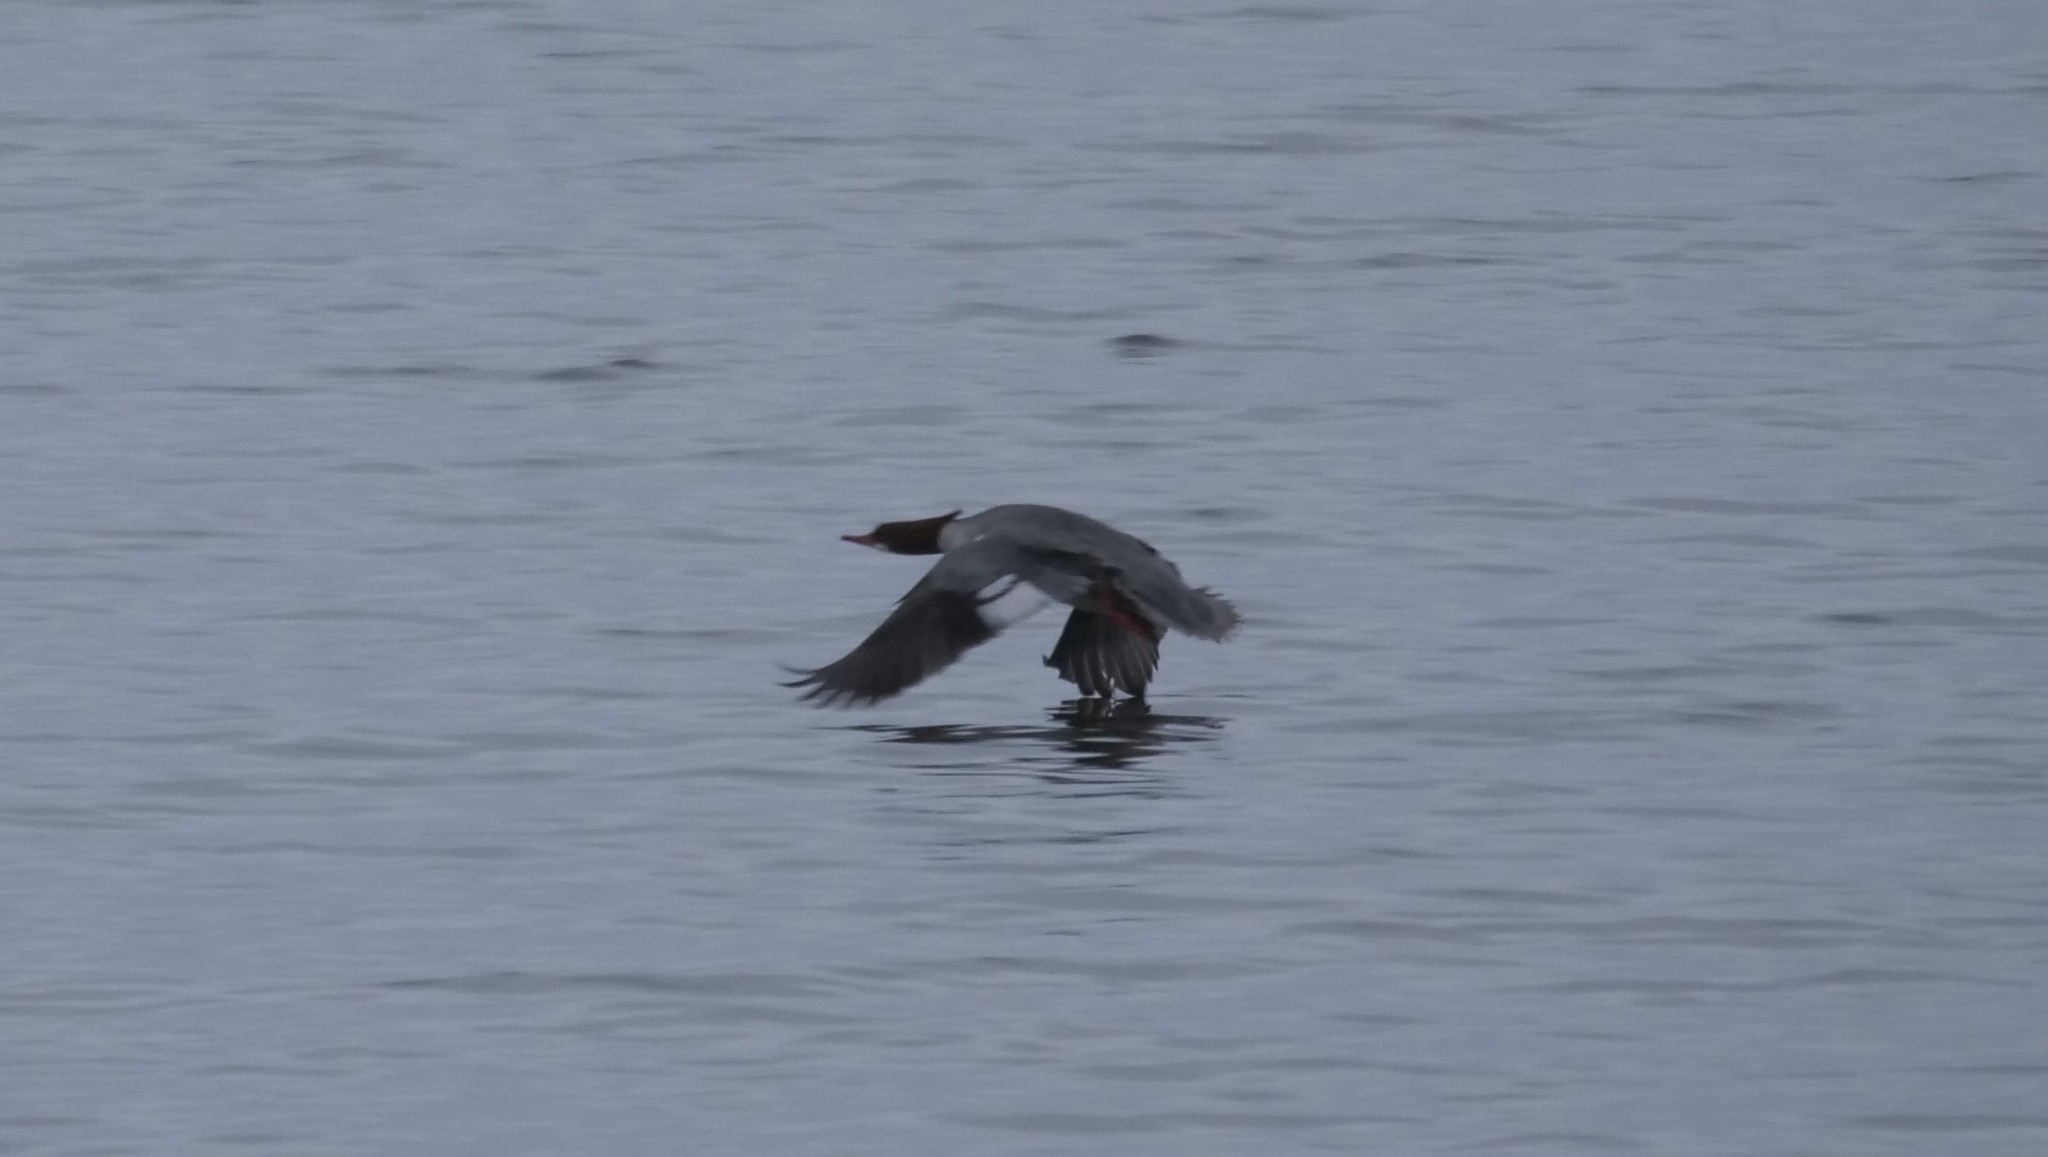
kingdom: Animalia
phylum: Chordata
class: Aves
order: Anseriformes
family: Anatidae
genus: Mergus
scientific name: Mergus merganser
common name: Common merganser
